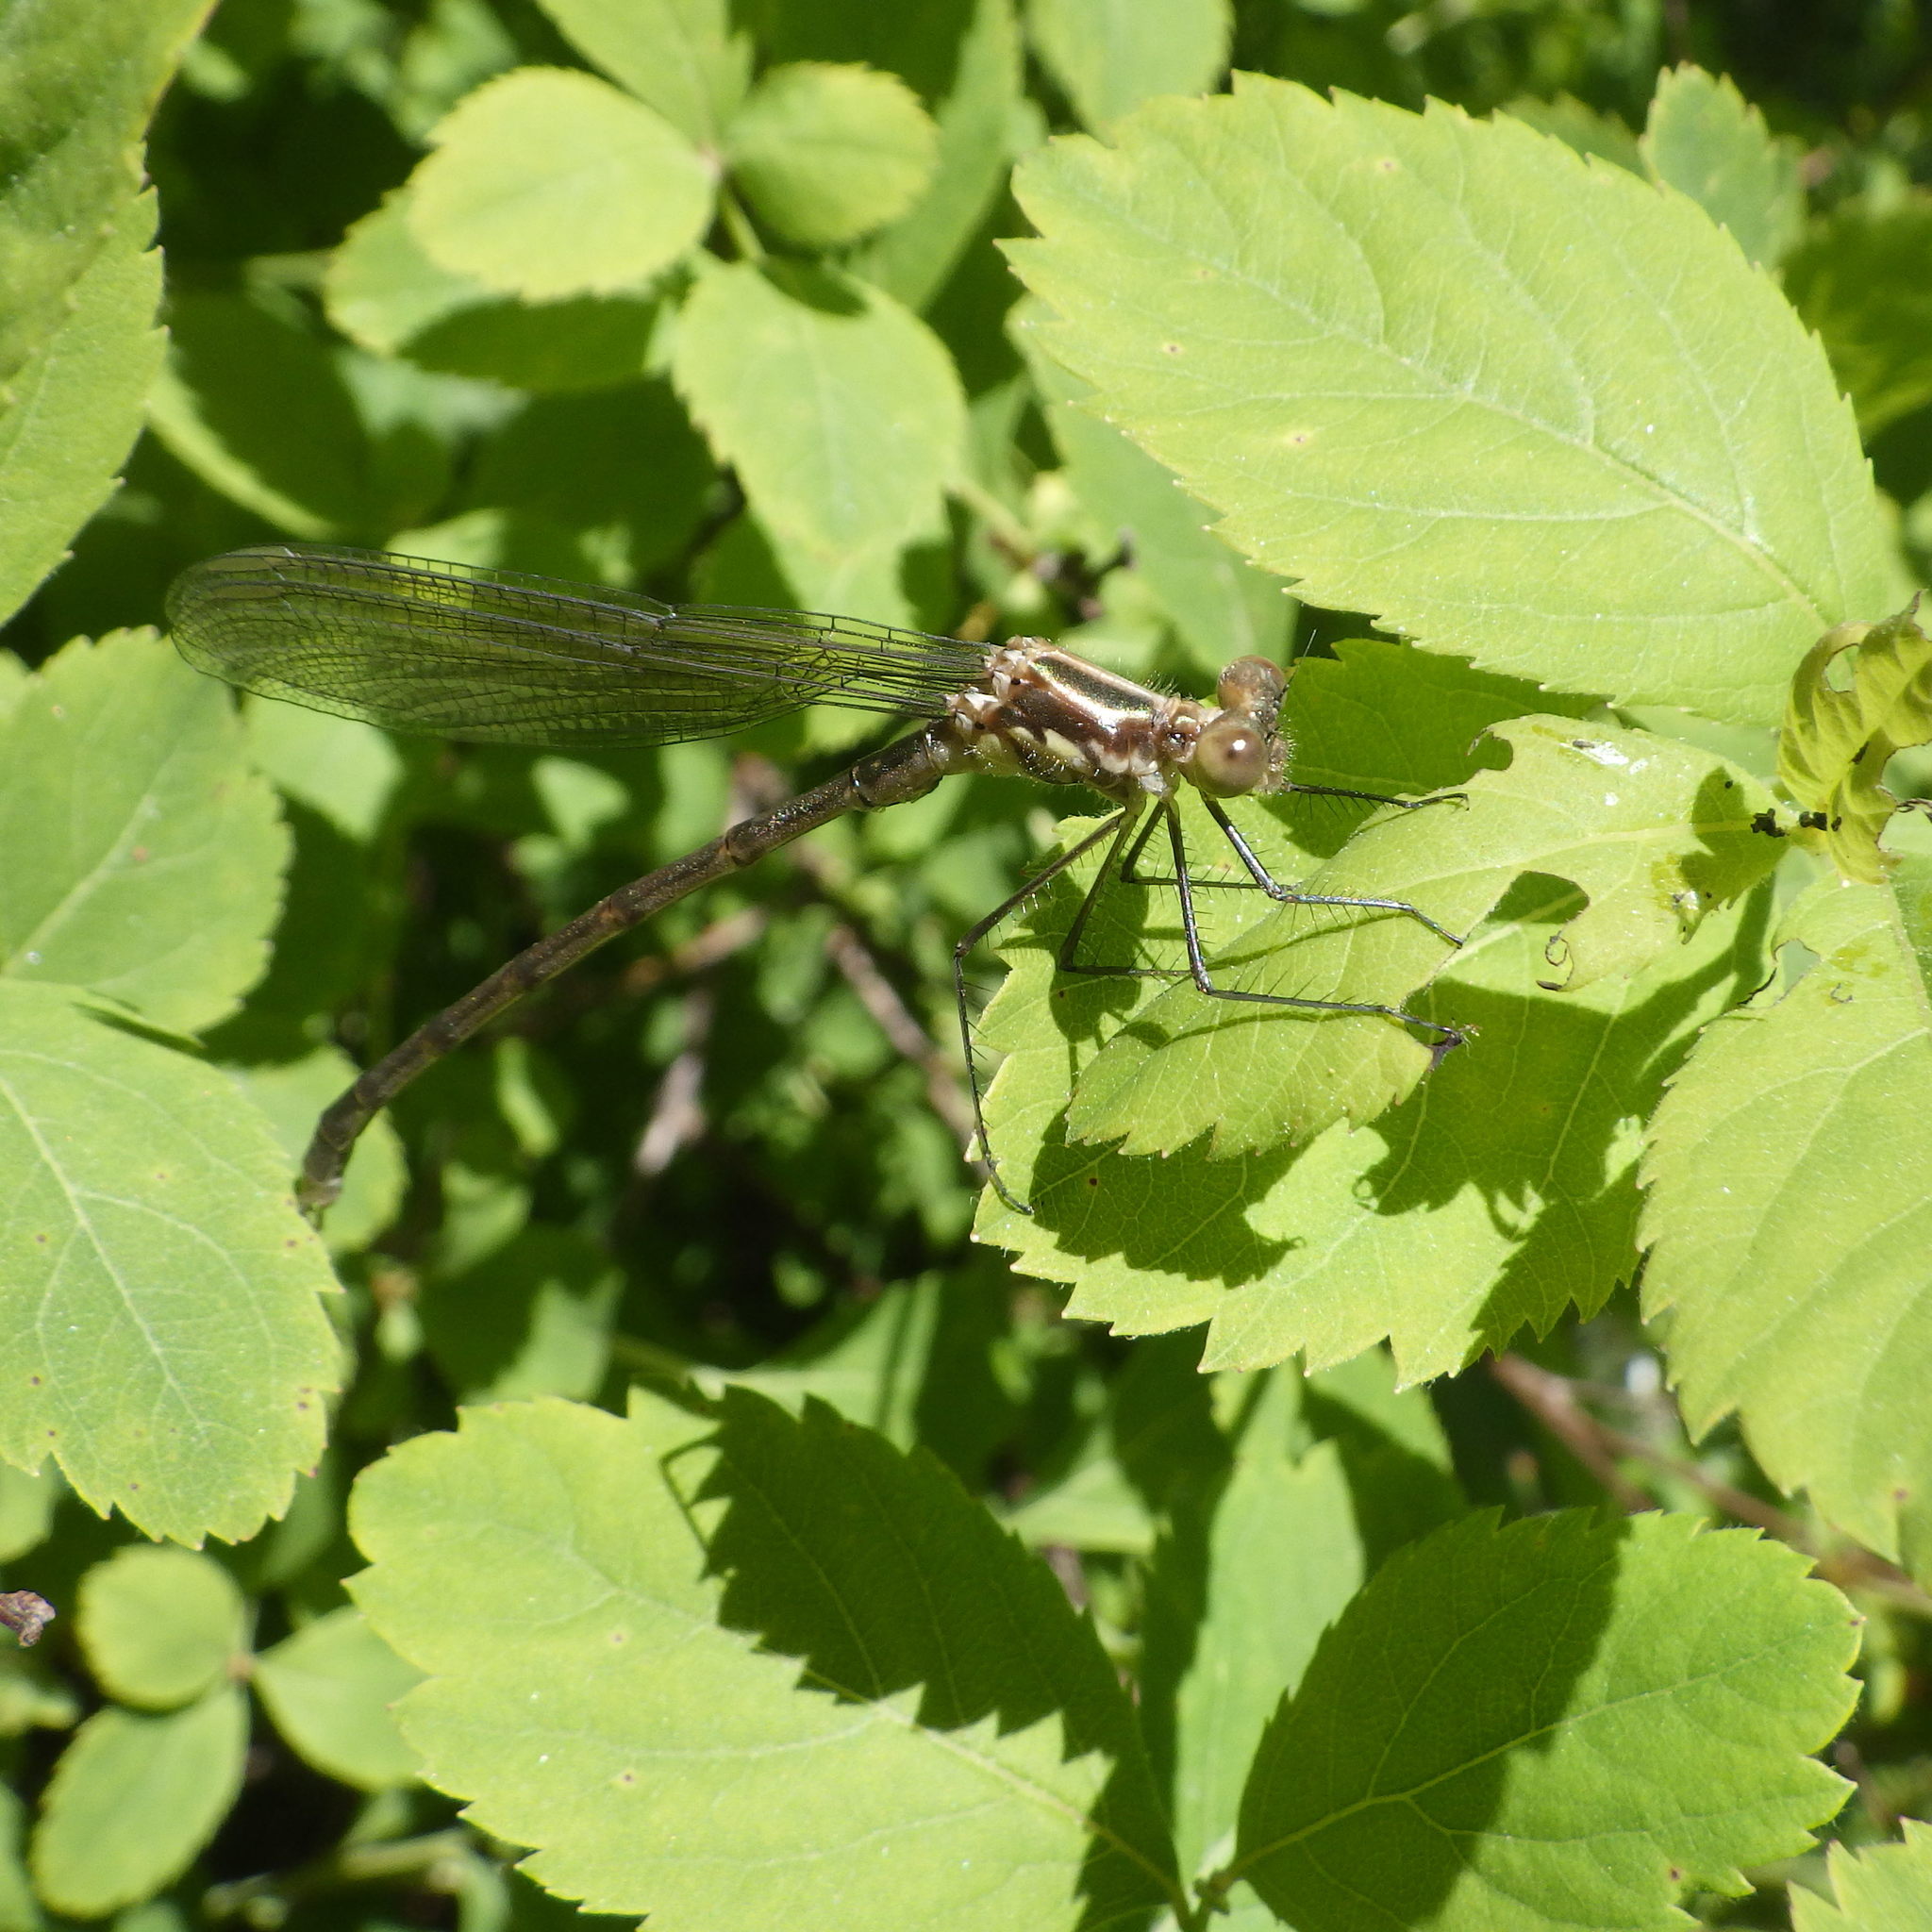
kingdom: Animalia
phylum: Arthropoda
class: Insecta
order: Odonata
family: Lestidae
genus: Lestes
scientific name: Lestes eurinus
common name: Amber-winged spreadwing
